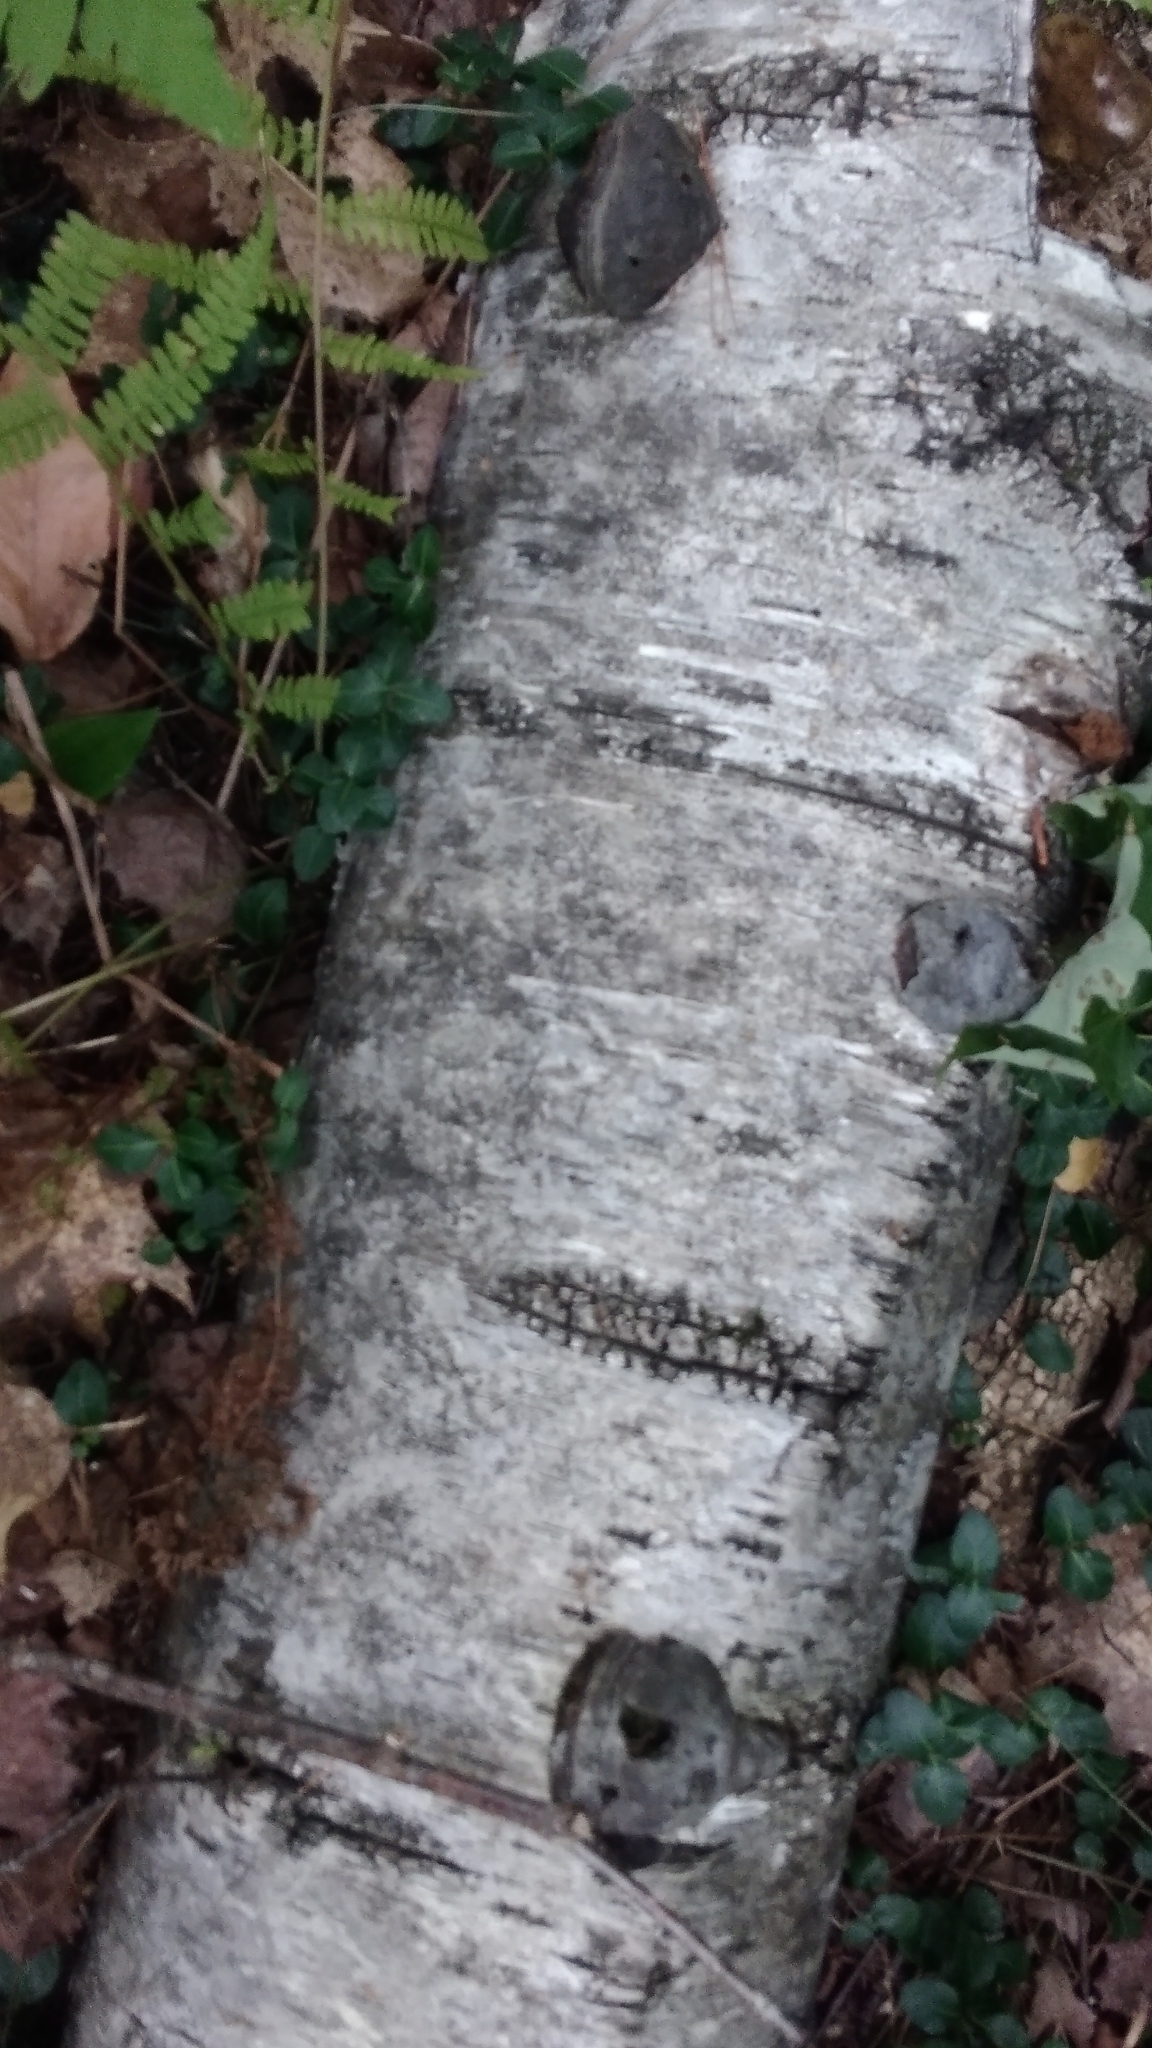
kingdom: Fungi
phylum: Basidiomycota
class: Agaricomycetes
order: Polyporales
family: Polyporaceae
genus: Fomes
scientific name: Fomes fomentarius
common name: Hoof fungus
